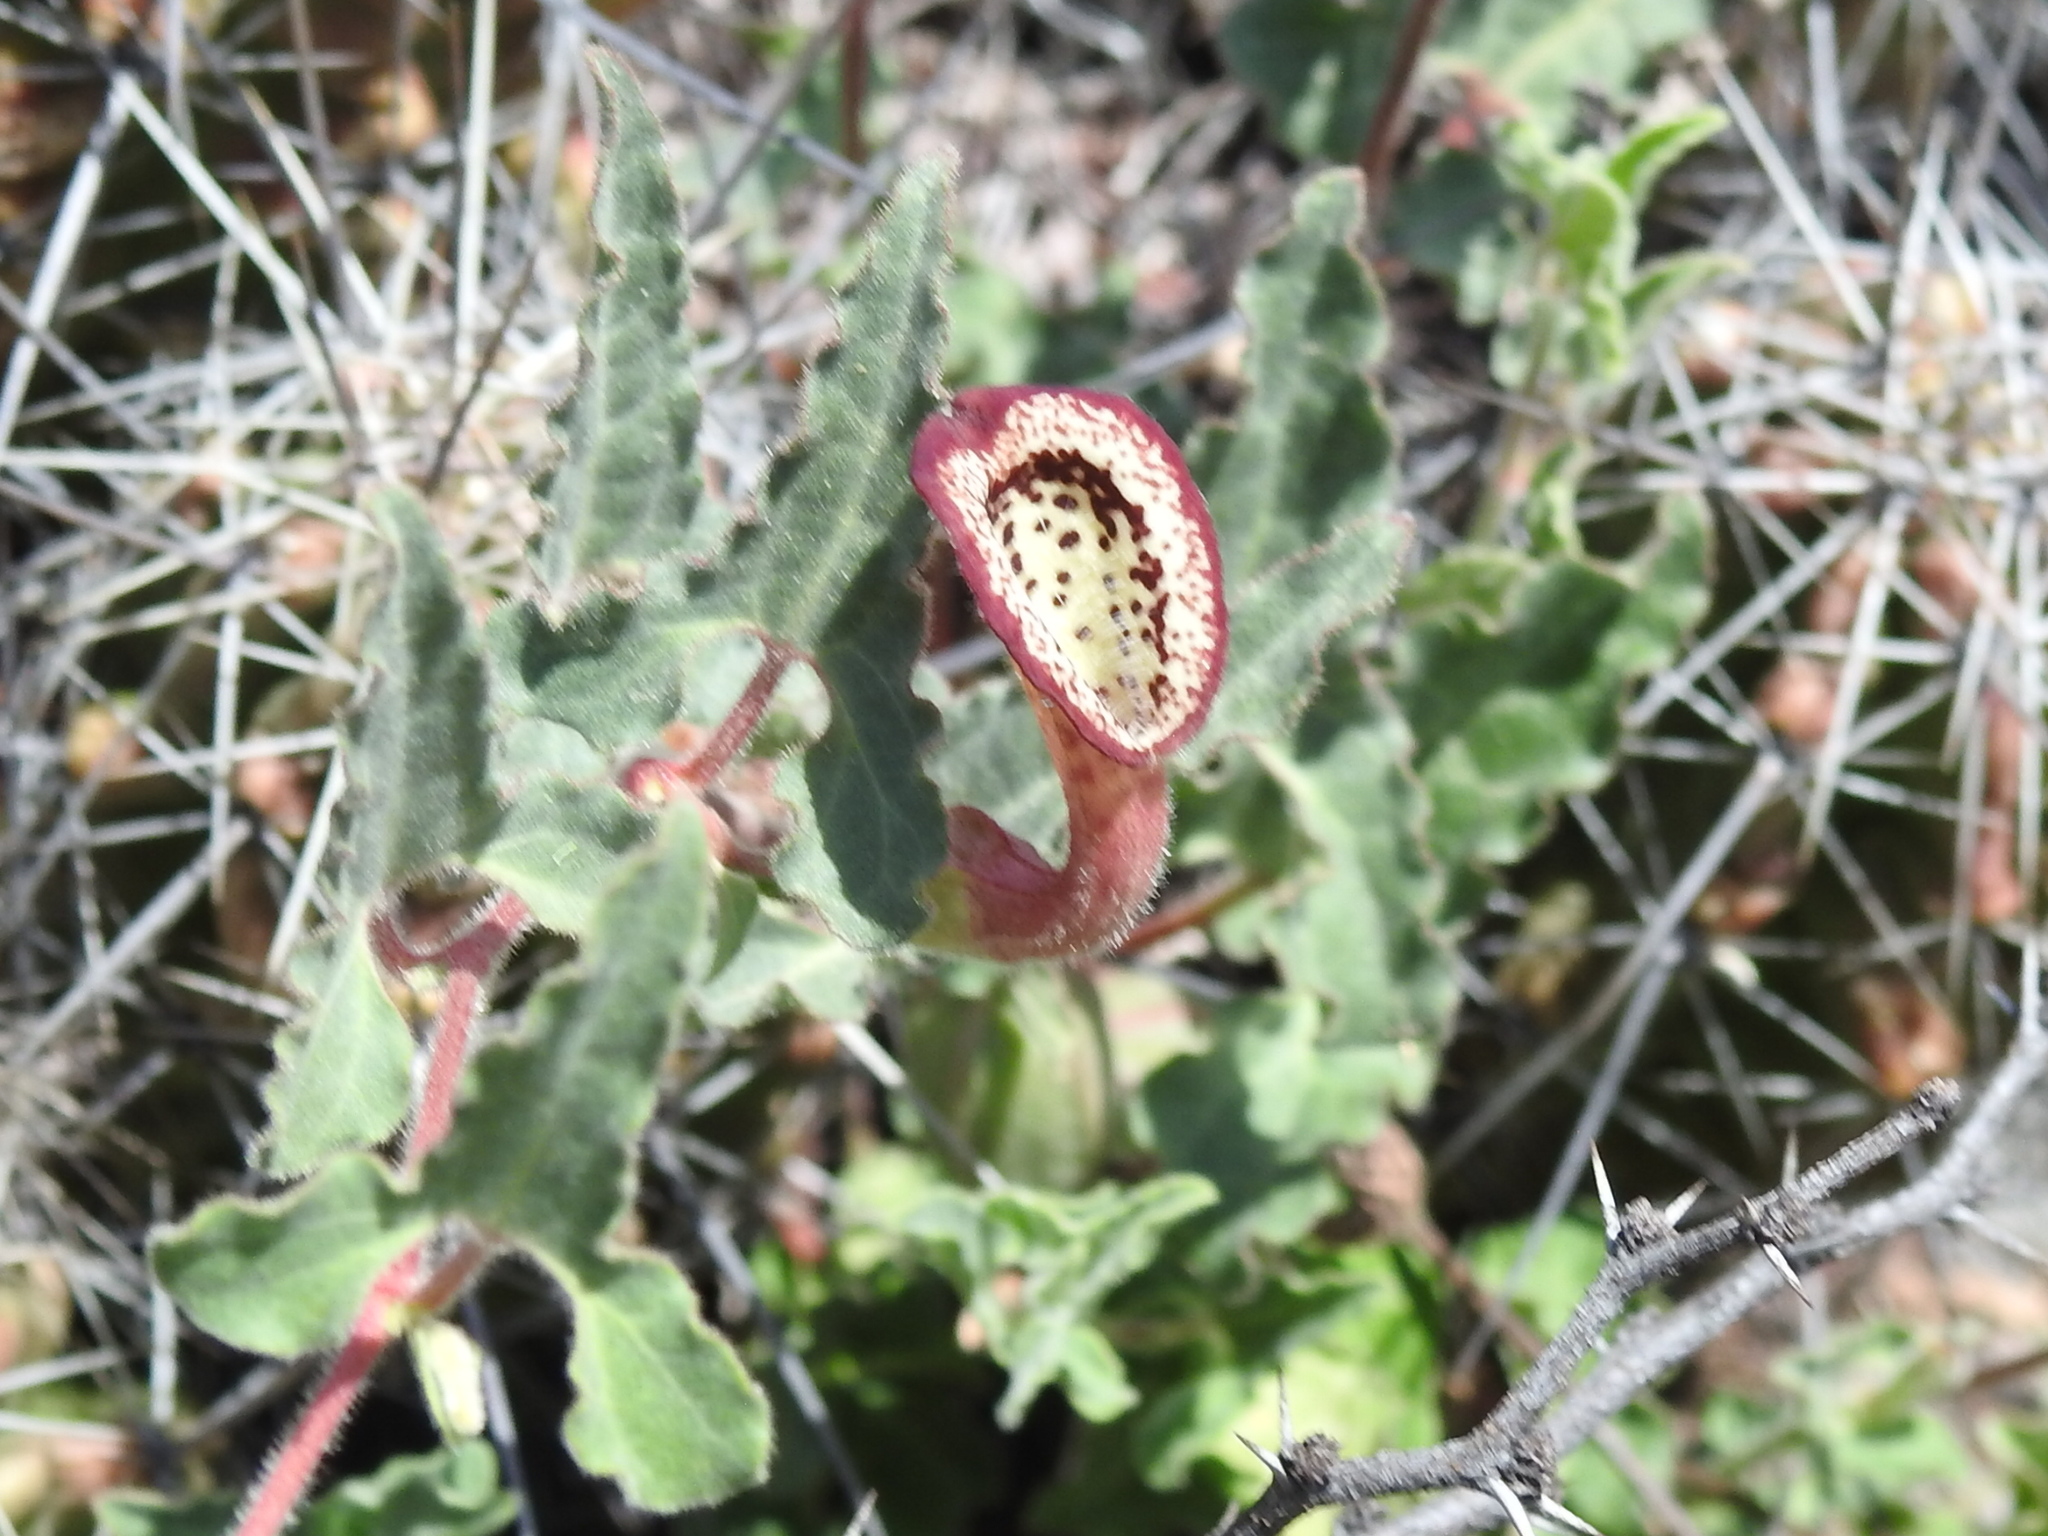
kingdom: Plantae
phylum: Tracheophyta
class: Magnoliopsida
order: Piperales
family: Aristolochiaceae
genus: Aristolochia
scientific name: Aristolochia coryi
